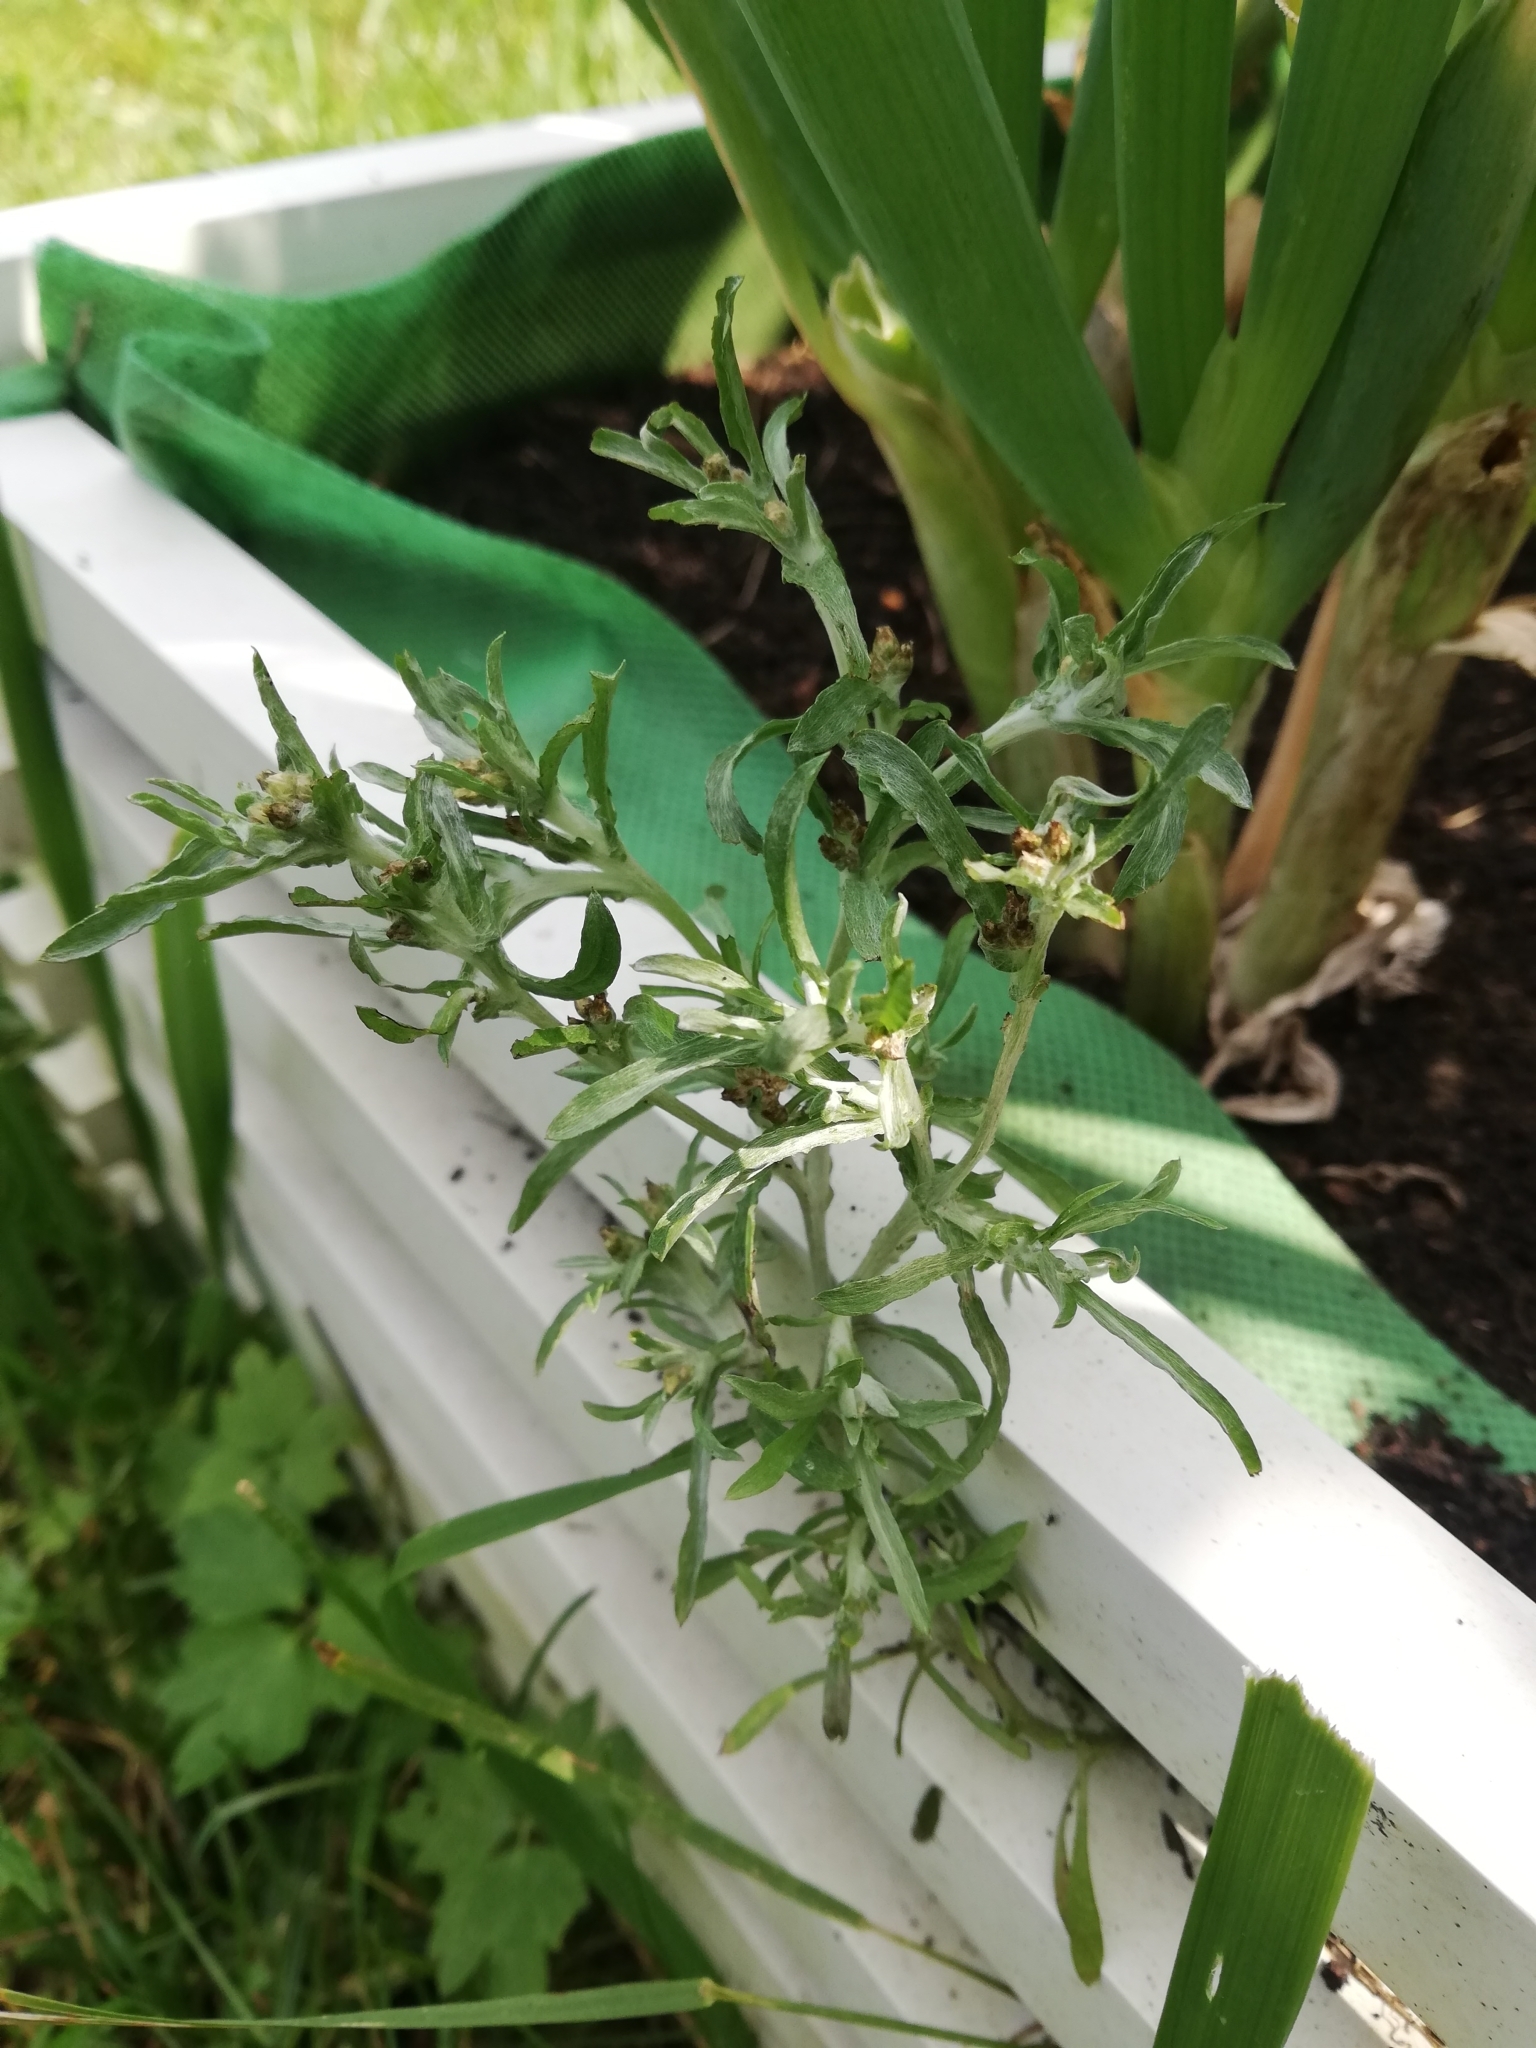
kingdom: Plantae
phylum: Tracheophyta
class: Magnoliopsida
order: Asterales
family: Asteraceae
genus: Gnaphalium
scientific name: Gnaphalium uliginosum
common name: Marsh cudweed
